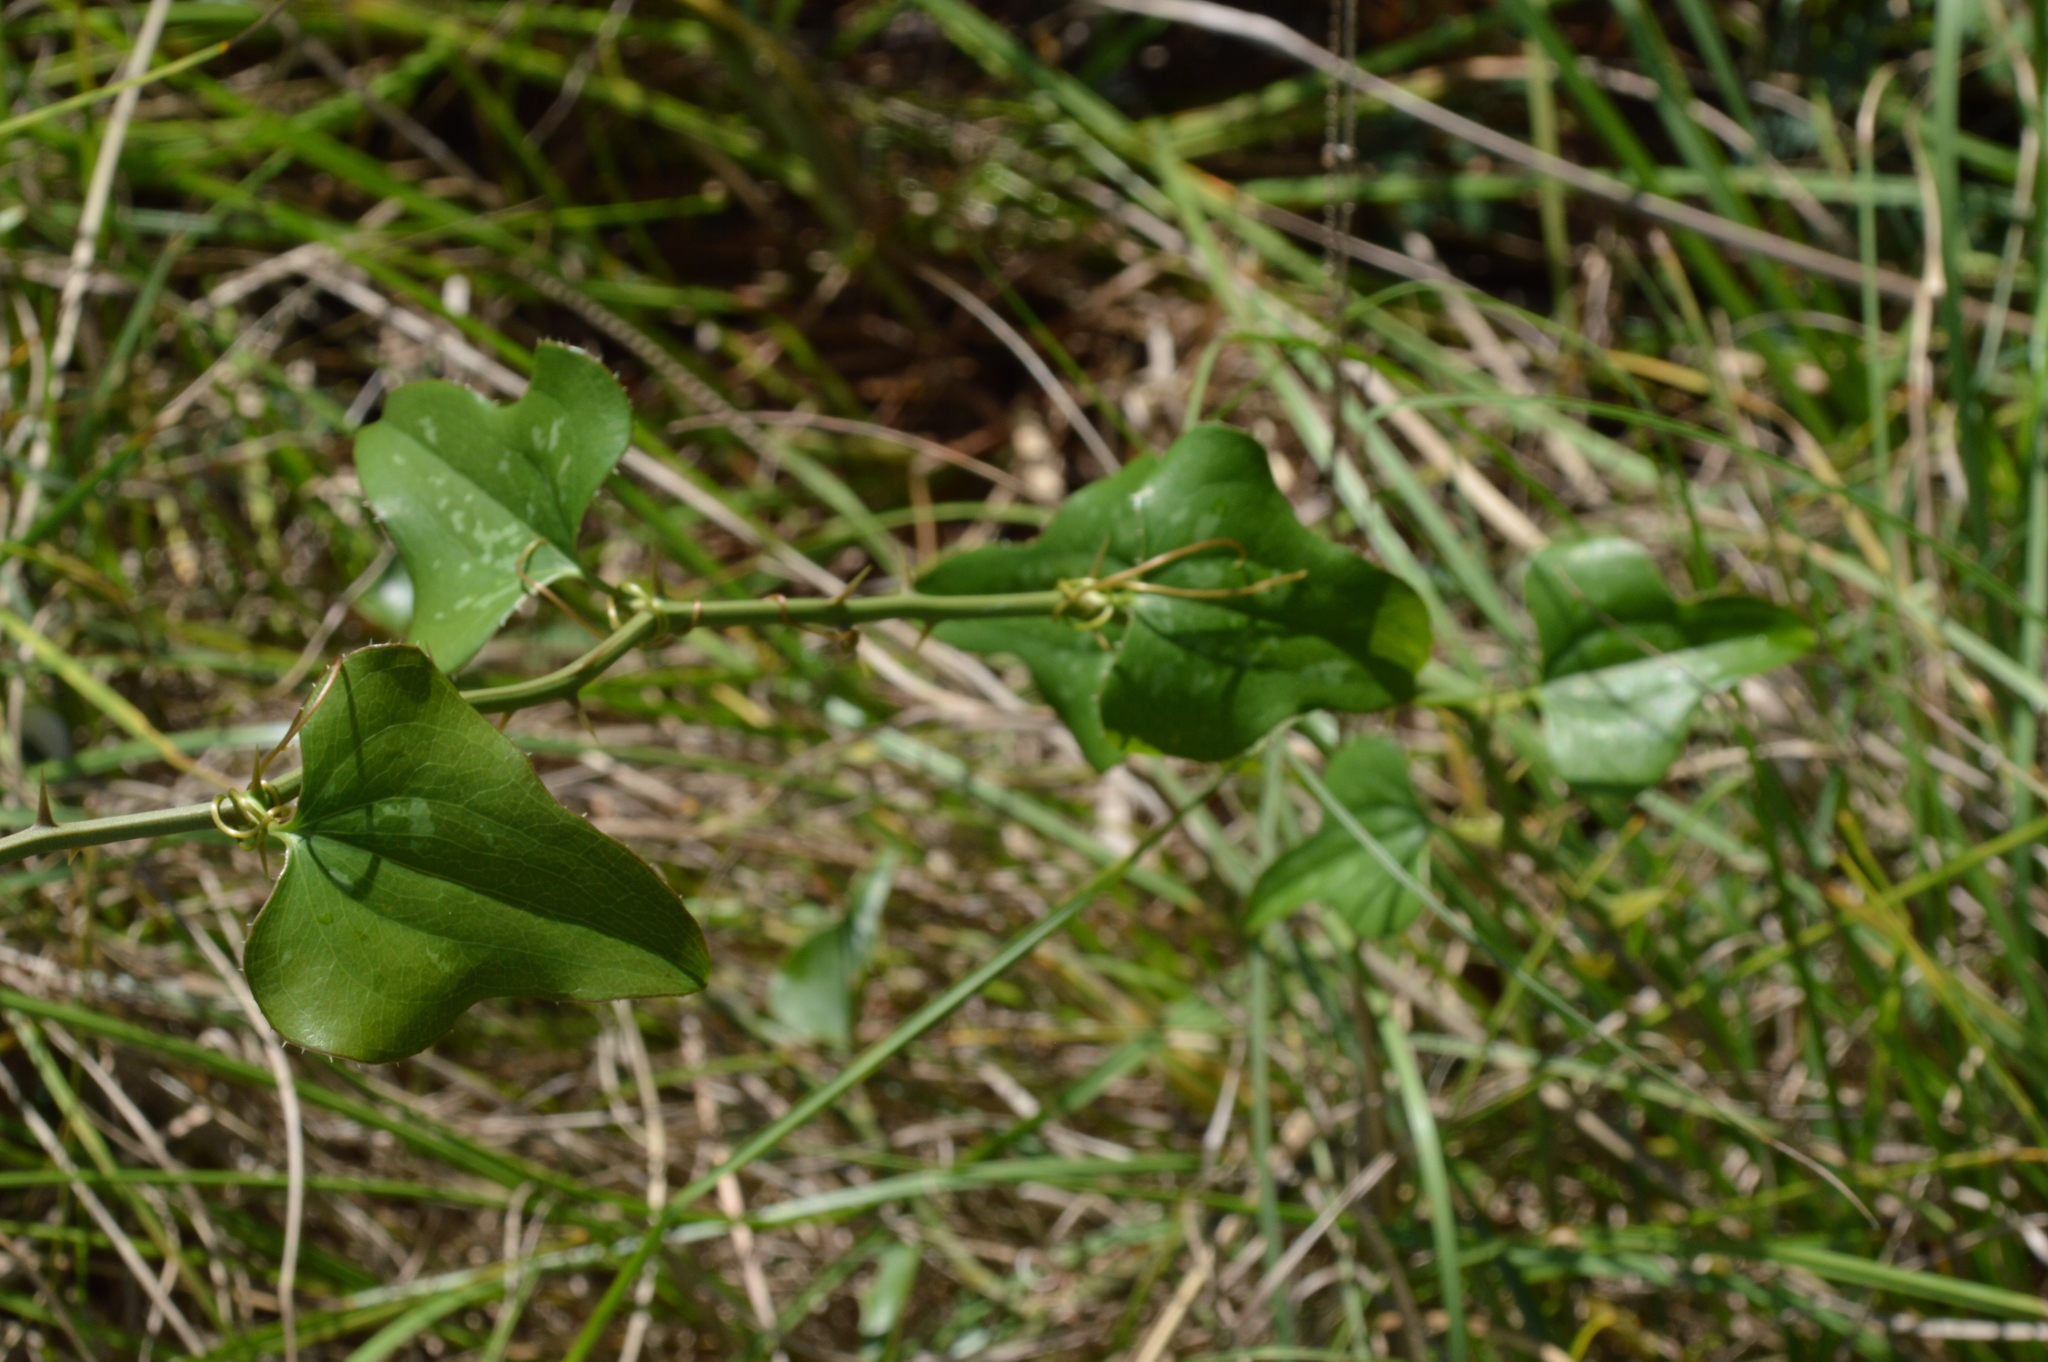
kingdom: Plantae
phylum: Tracheophyta
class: Liliopsida
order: Liliales
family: Smilacaceae
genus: Smilax
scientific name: Smilax bona-nox
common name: Catbrier
